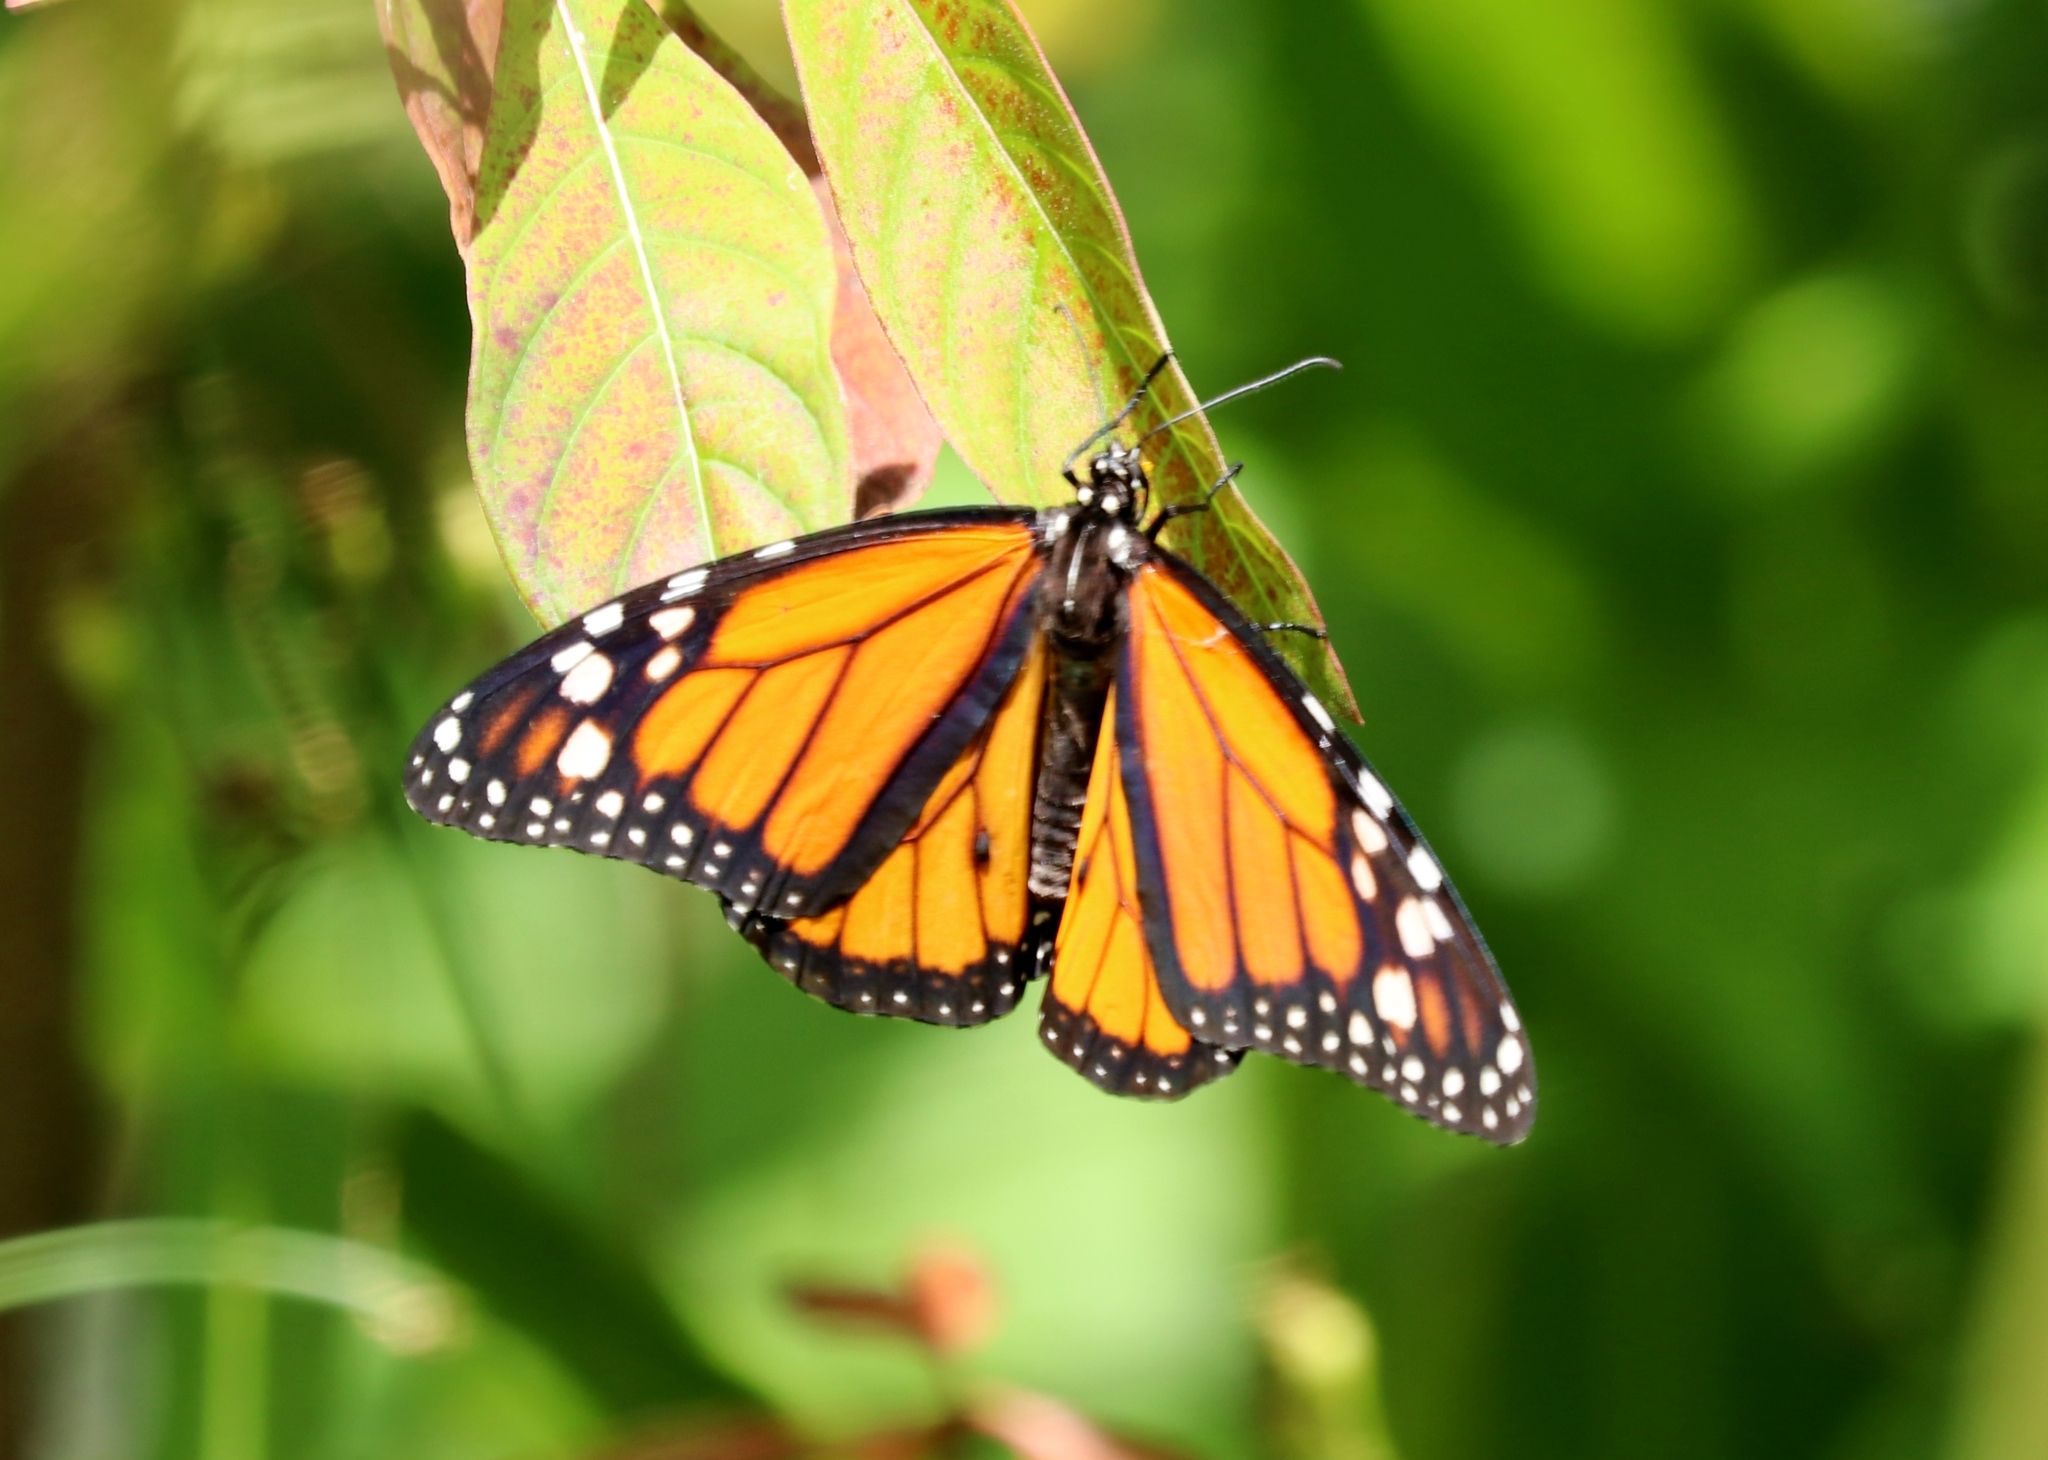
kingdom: Animalia
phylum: Arthropoda
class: Insecta
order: Lepidoptera
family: Nymphalidae
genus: Danaus
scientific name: Danaus plexippus
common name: Monarch
